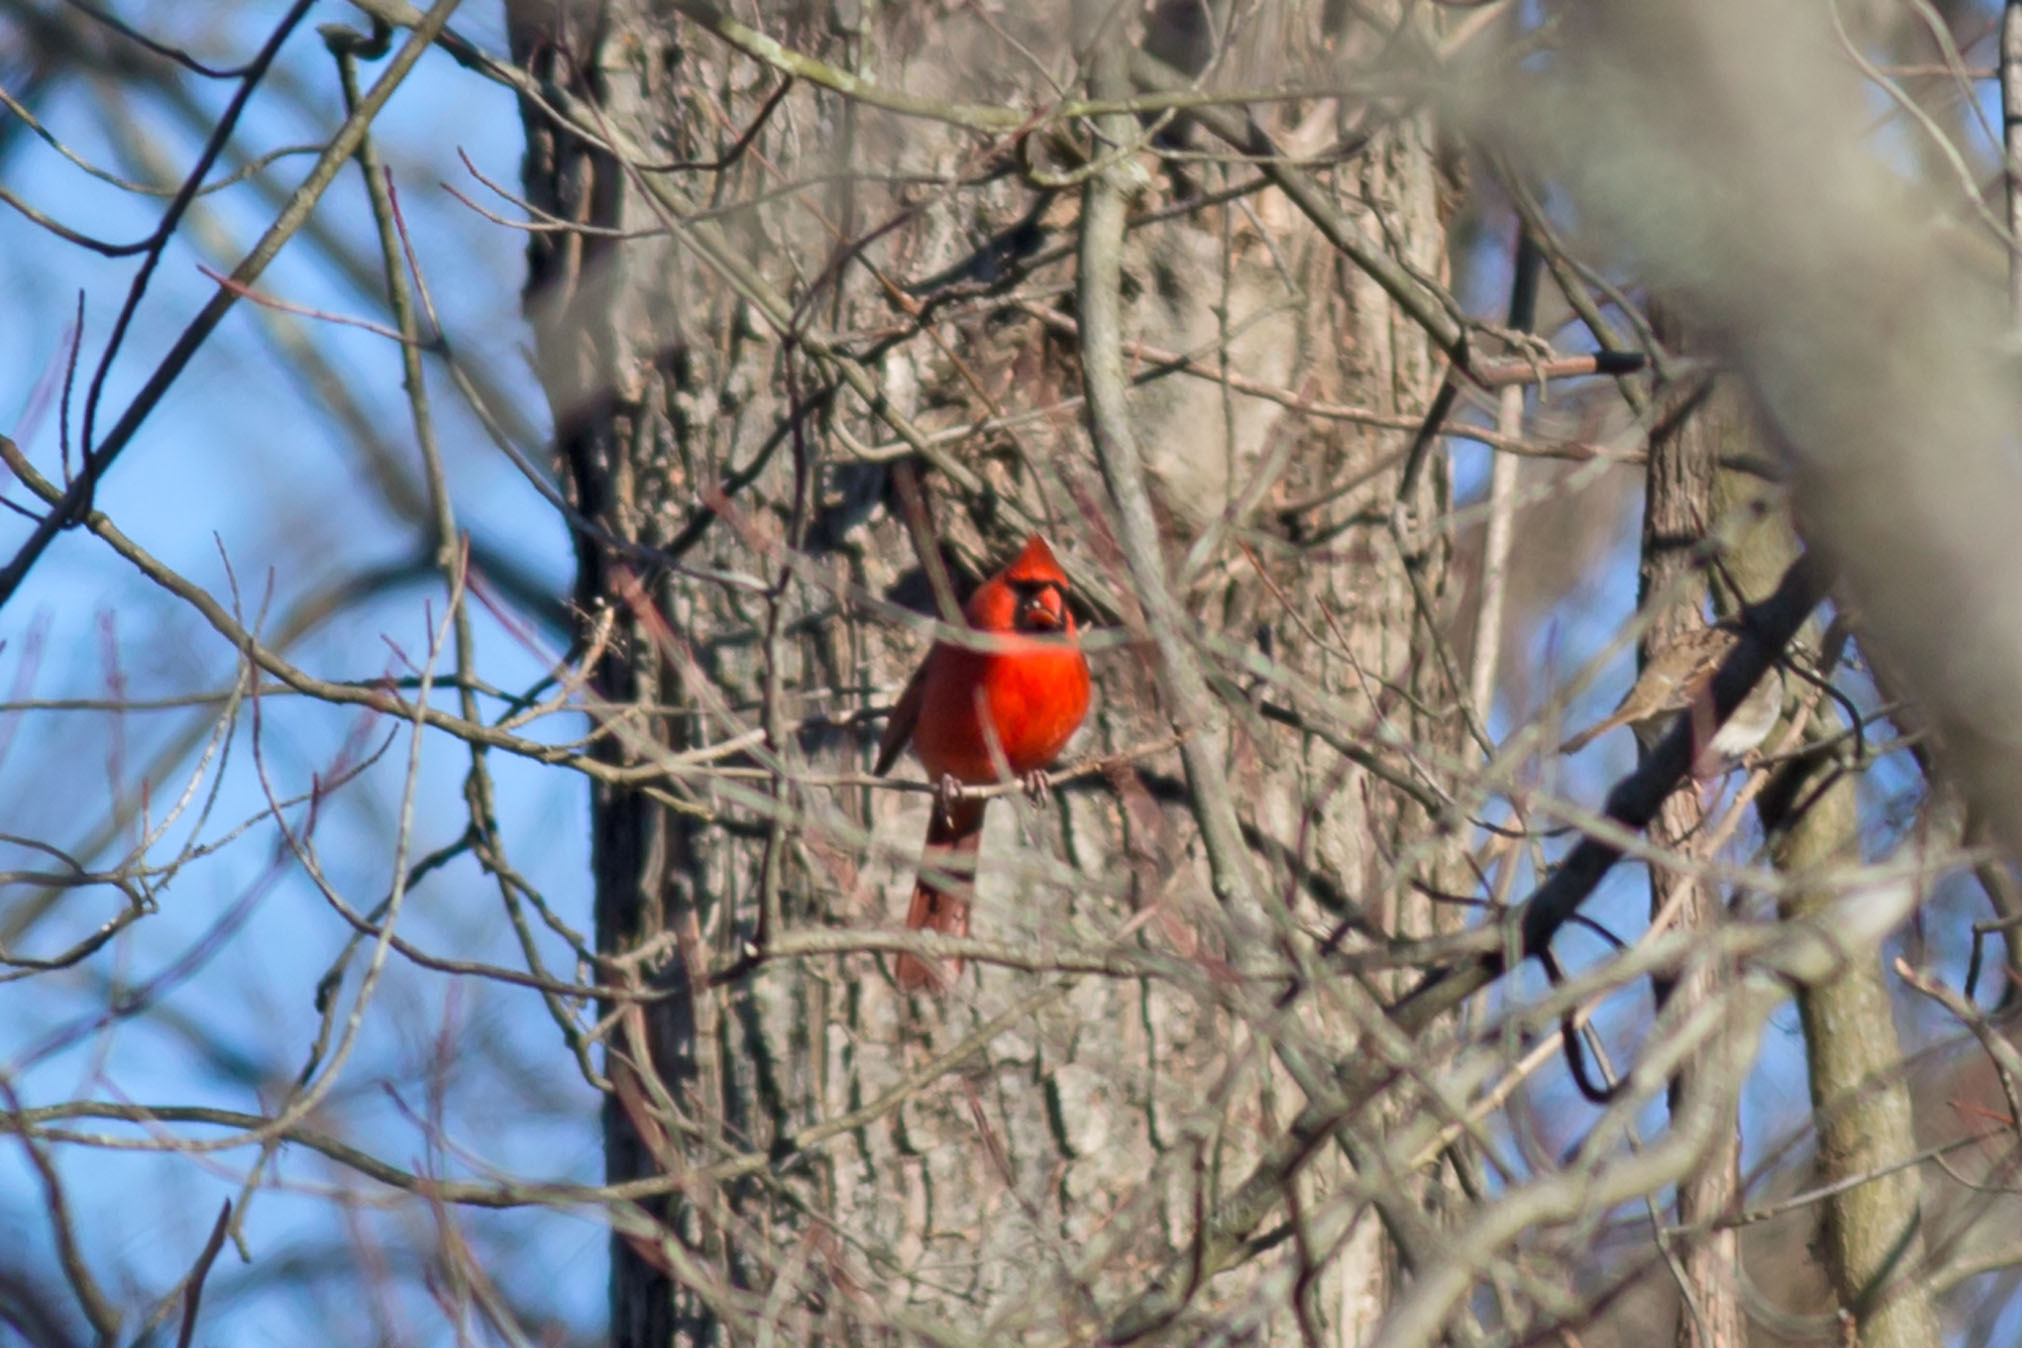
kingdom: Animalia
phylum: Chordata
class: Aves
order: Passeriformes
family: Cardinalidae
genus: Cardinalis
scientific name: Cardinalis cardinalis
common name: Northern cardinal
